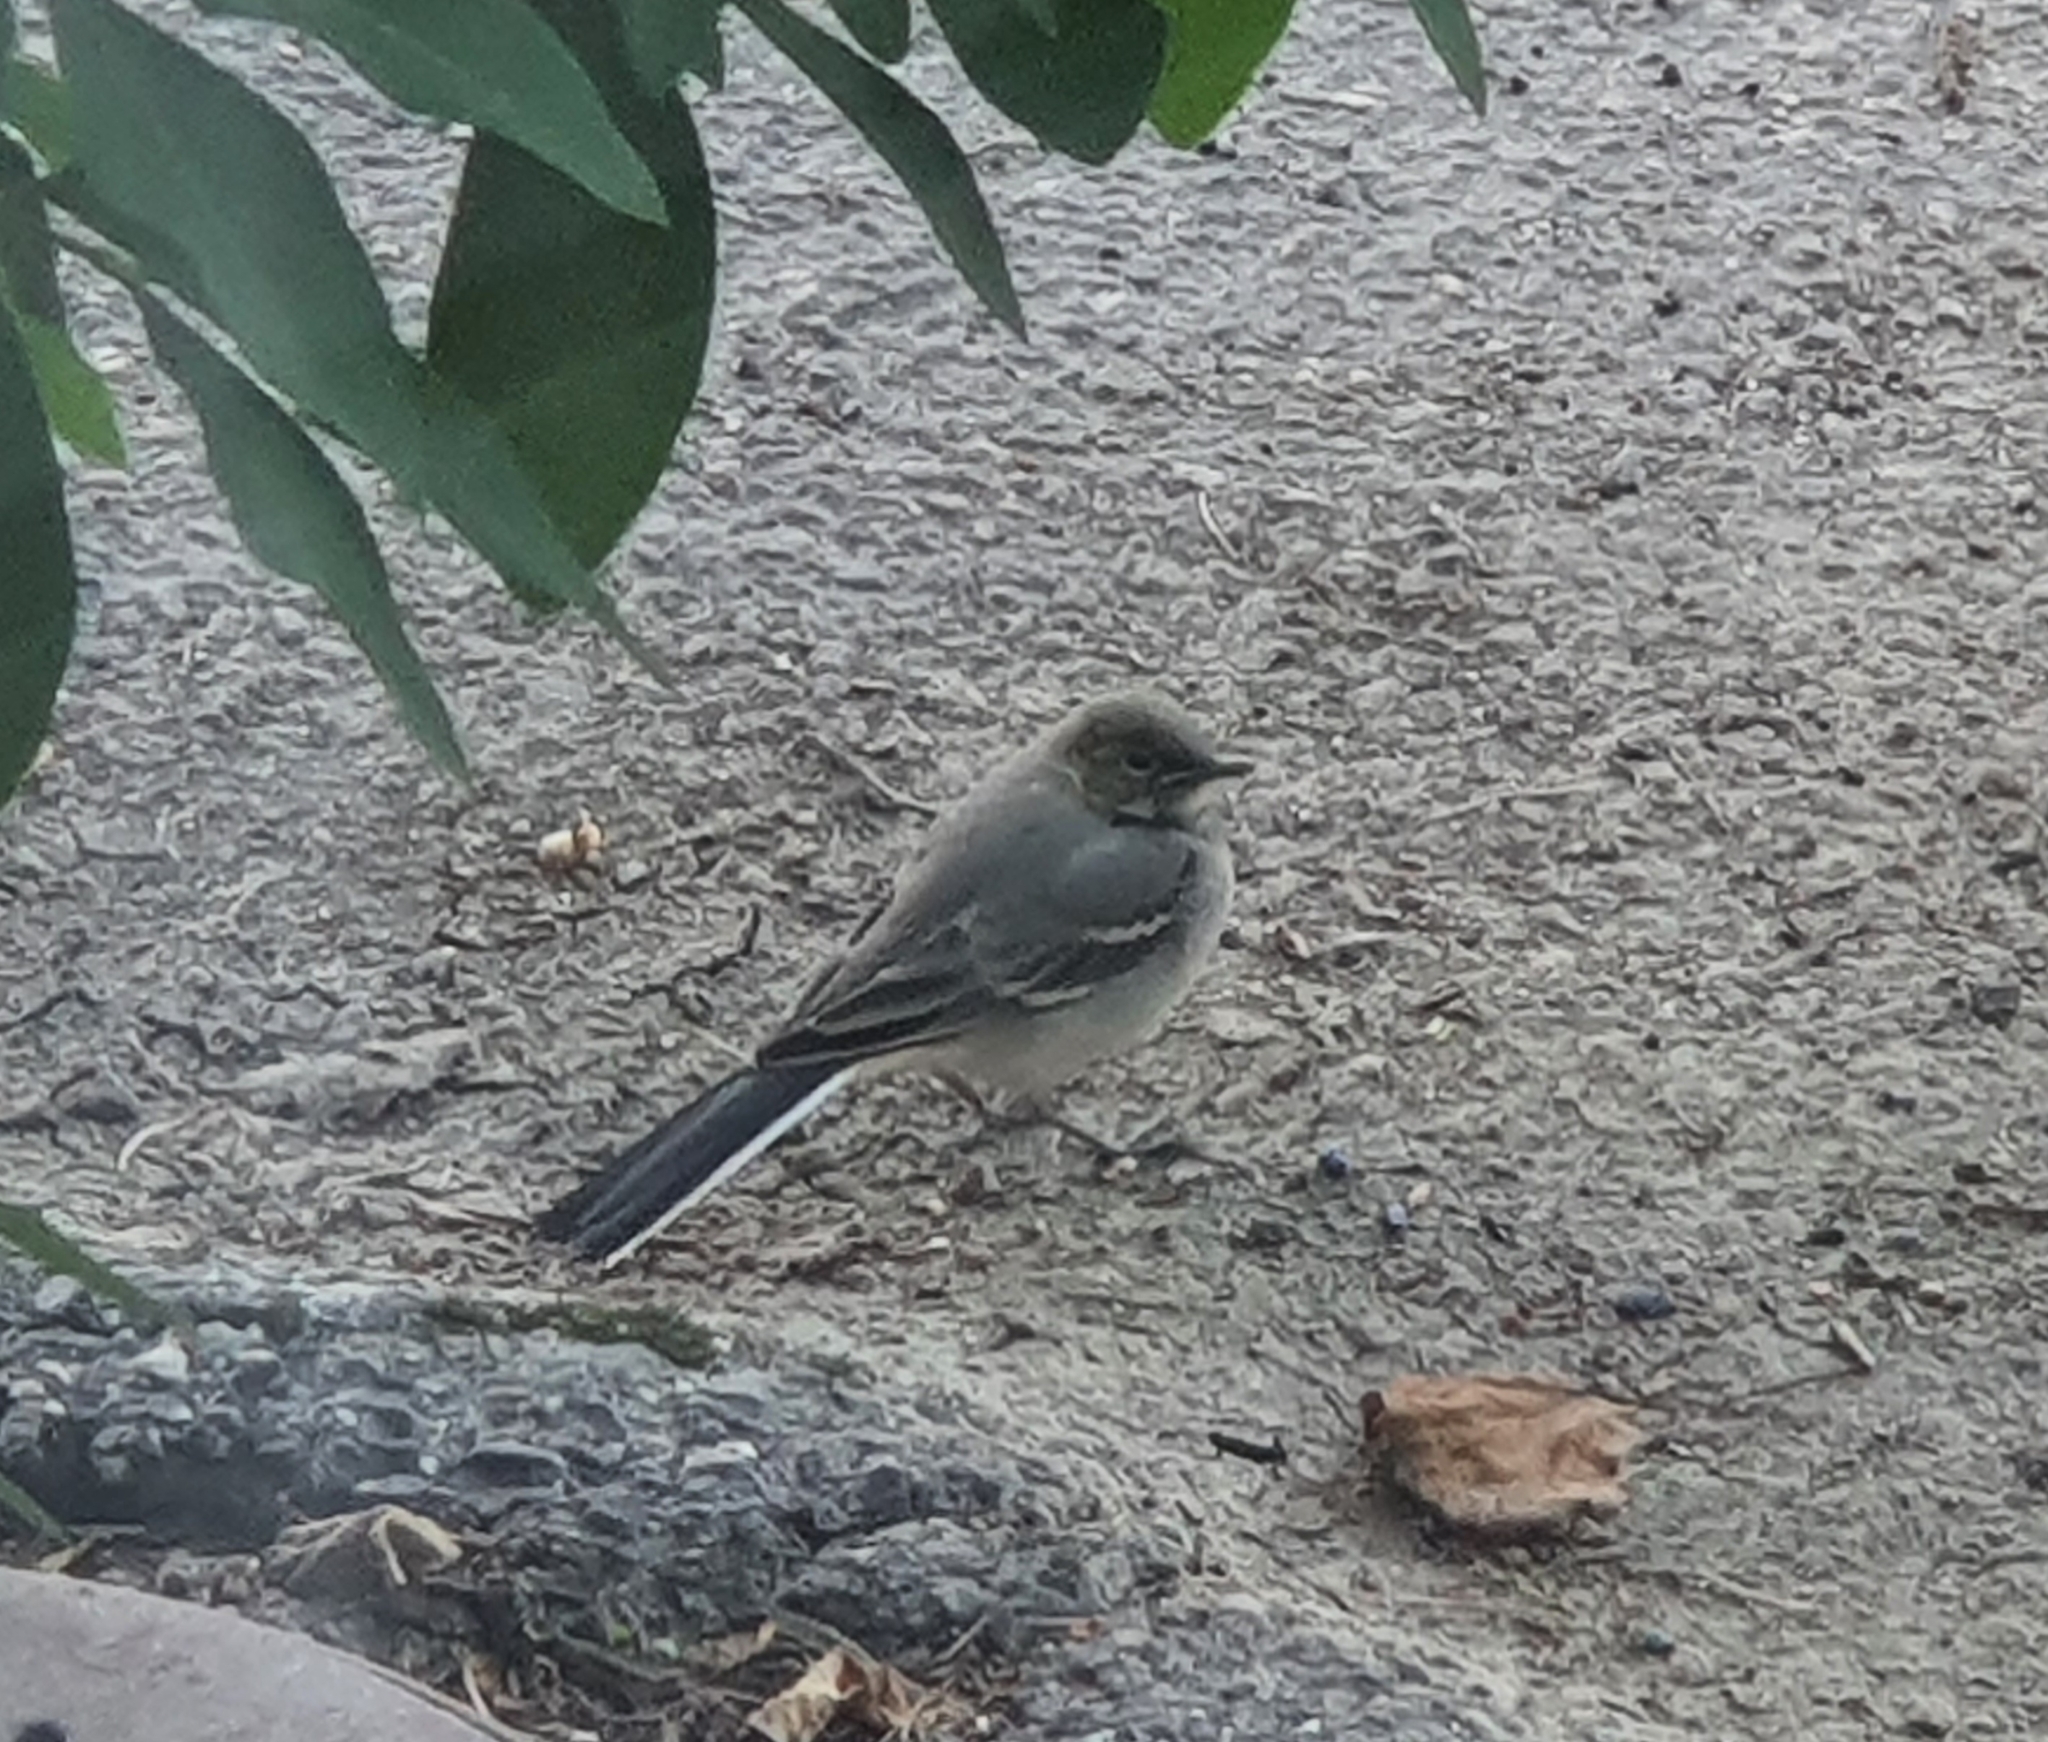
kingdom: Animalia
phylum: Chordata
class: Aves
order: Passeriformes
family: Motacillidae
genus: Motacilla
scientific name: Motacilla alba
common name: White wagtail
